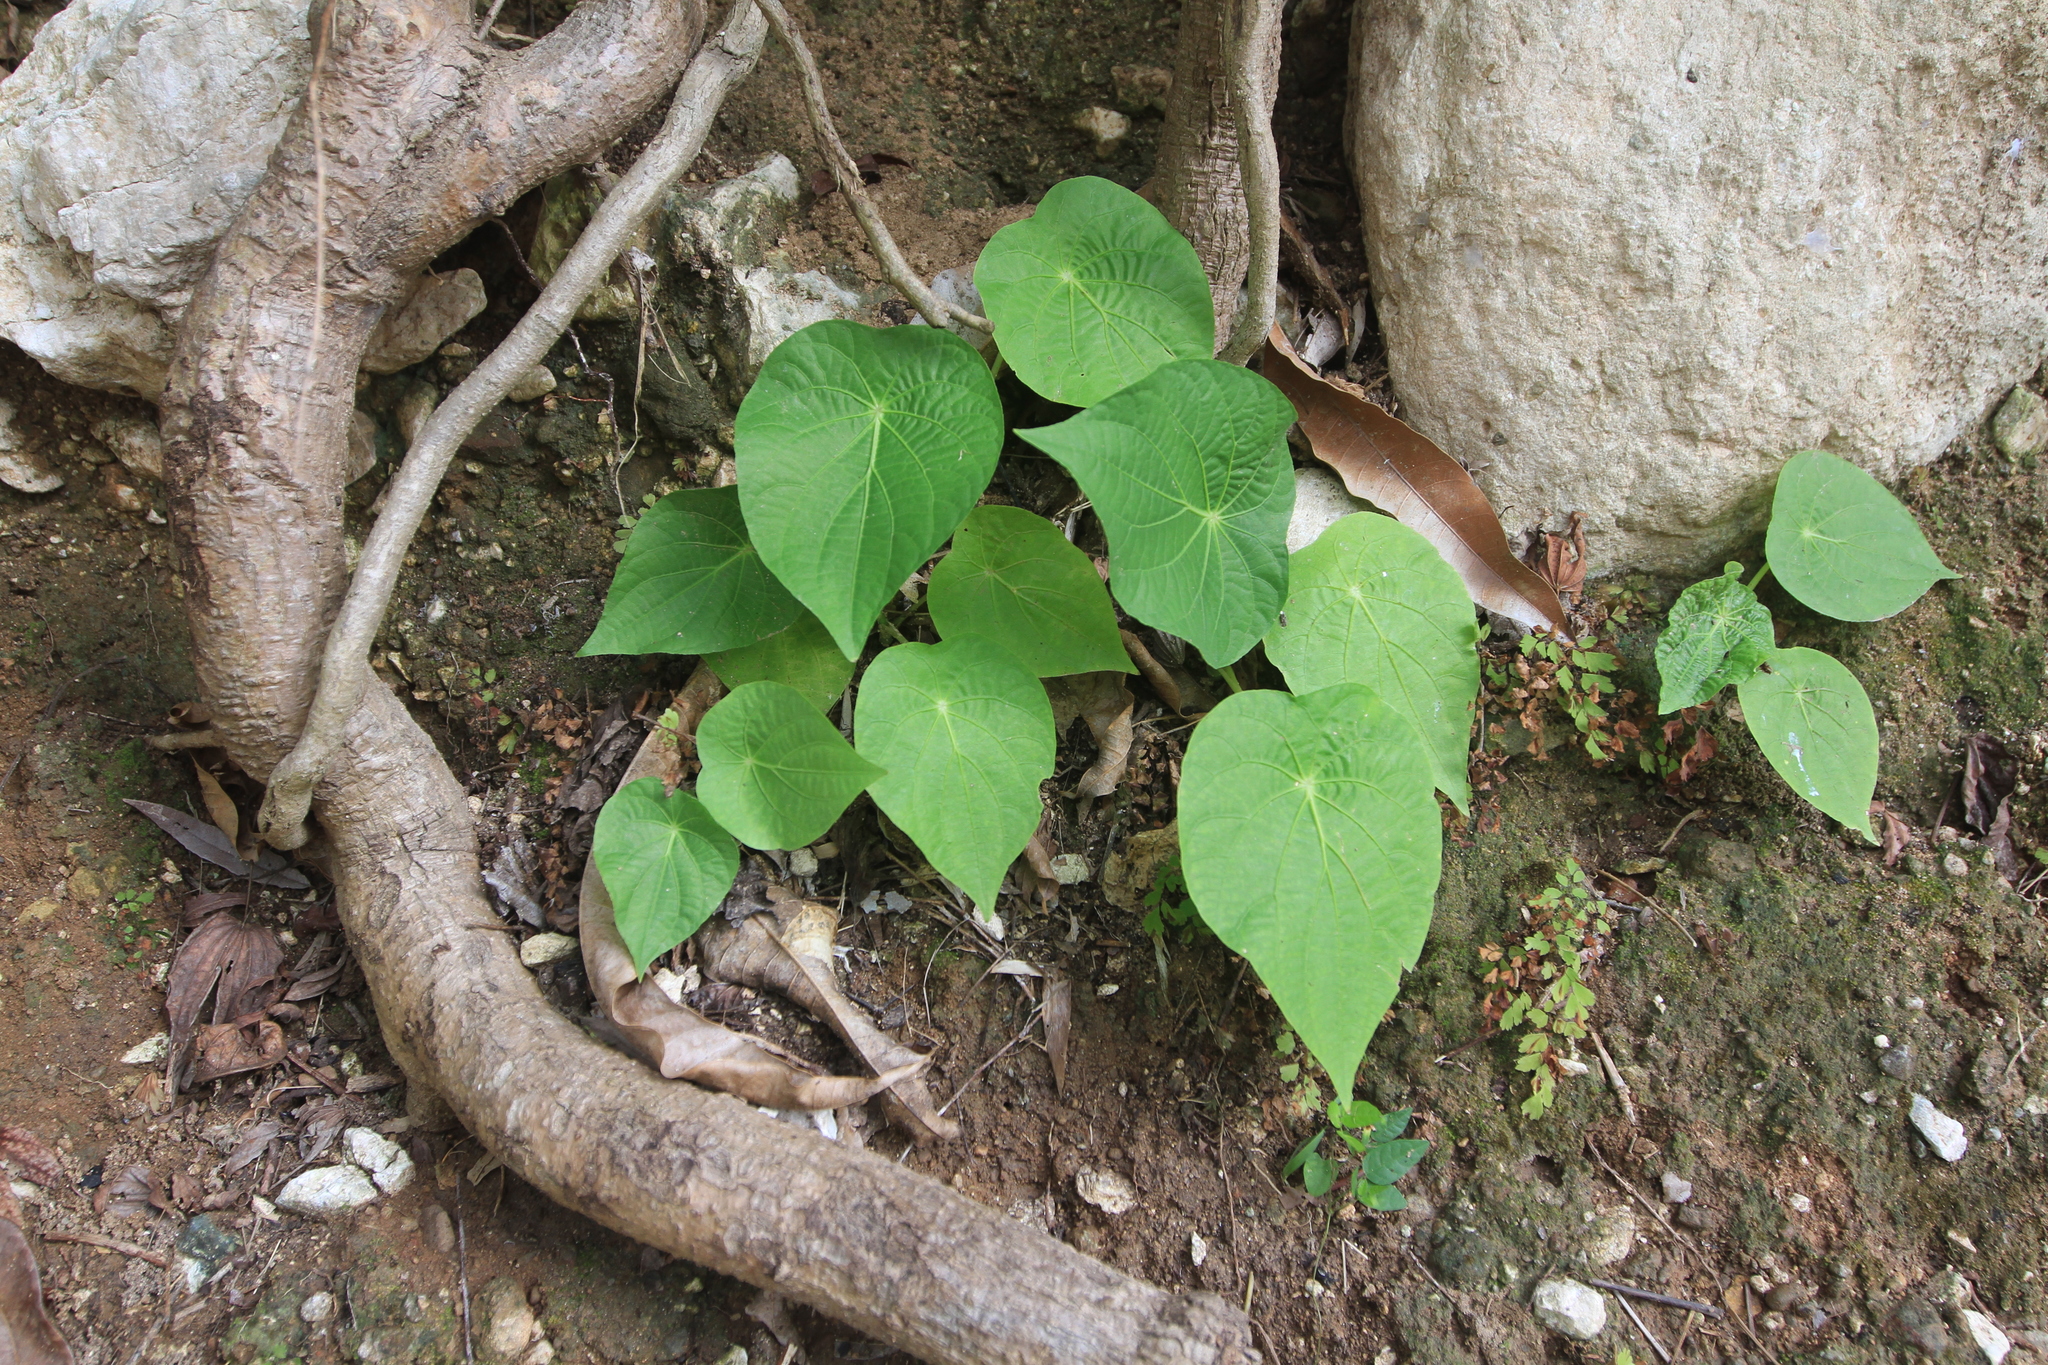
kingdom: Plantae
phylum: Tracheophyta
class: Magnoliopsida
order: Piperales
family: Piperaceae
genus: Piper
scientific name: Piper peltatum
